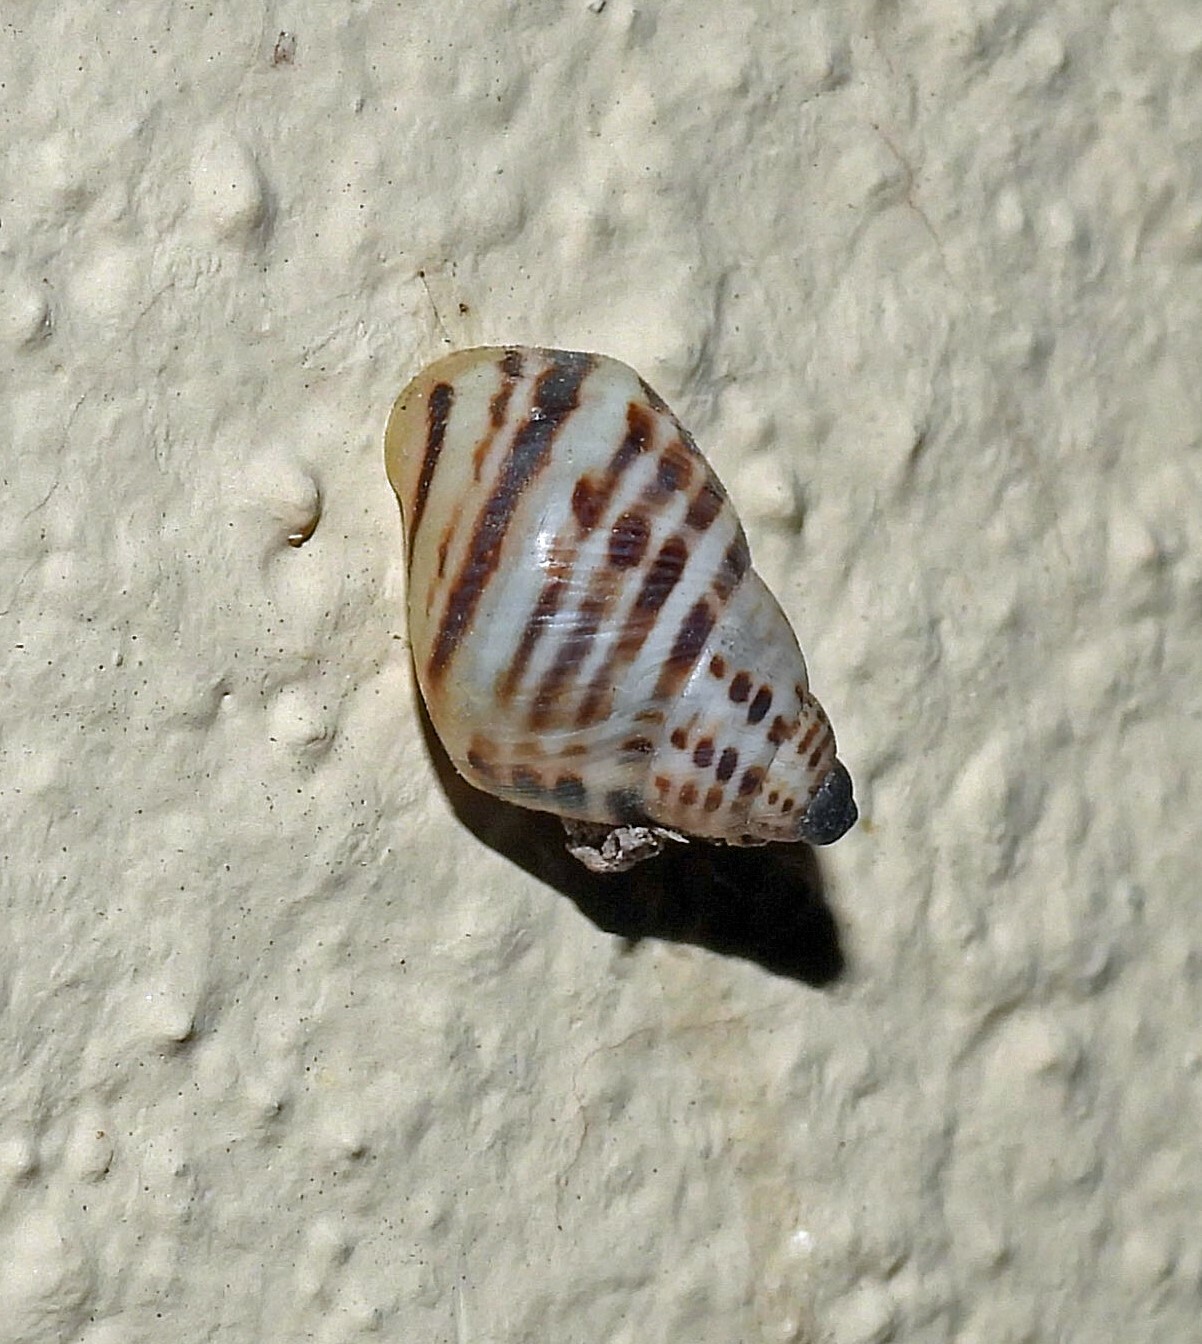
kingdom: Animalia
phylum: Mollusca
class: Gastropoda
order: Stylommatophora
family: Bulimulidae
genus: Drymaeus
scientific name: Drymaeus poecilus
